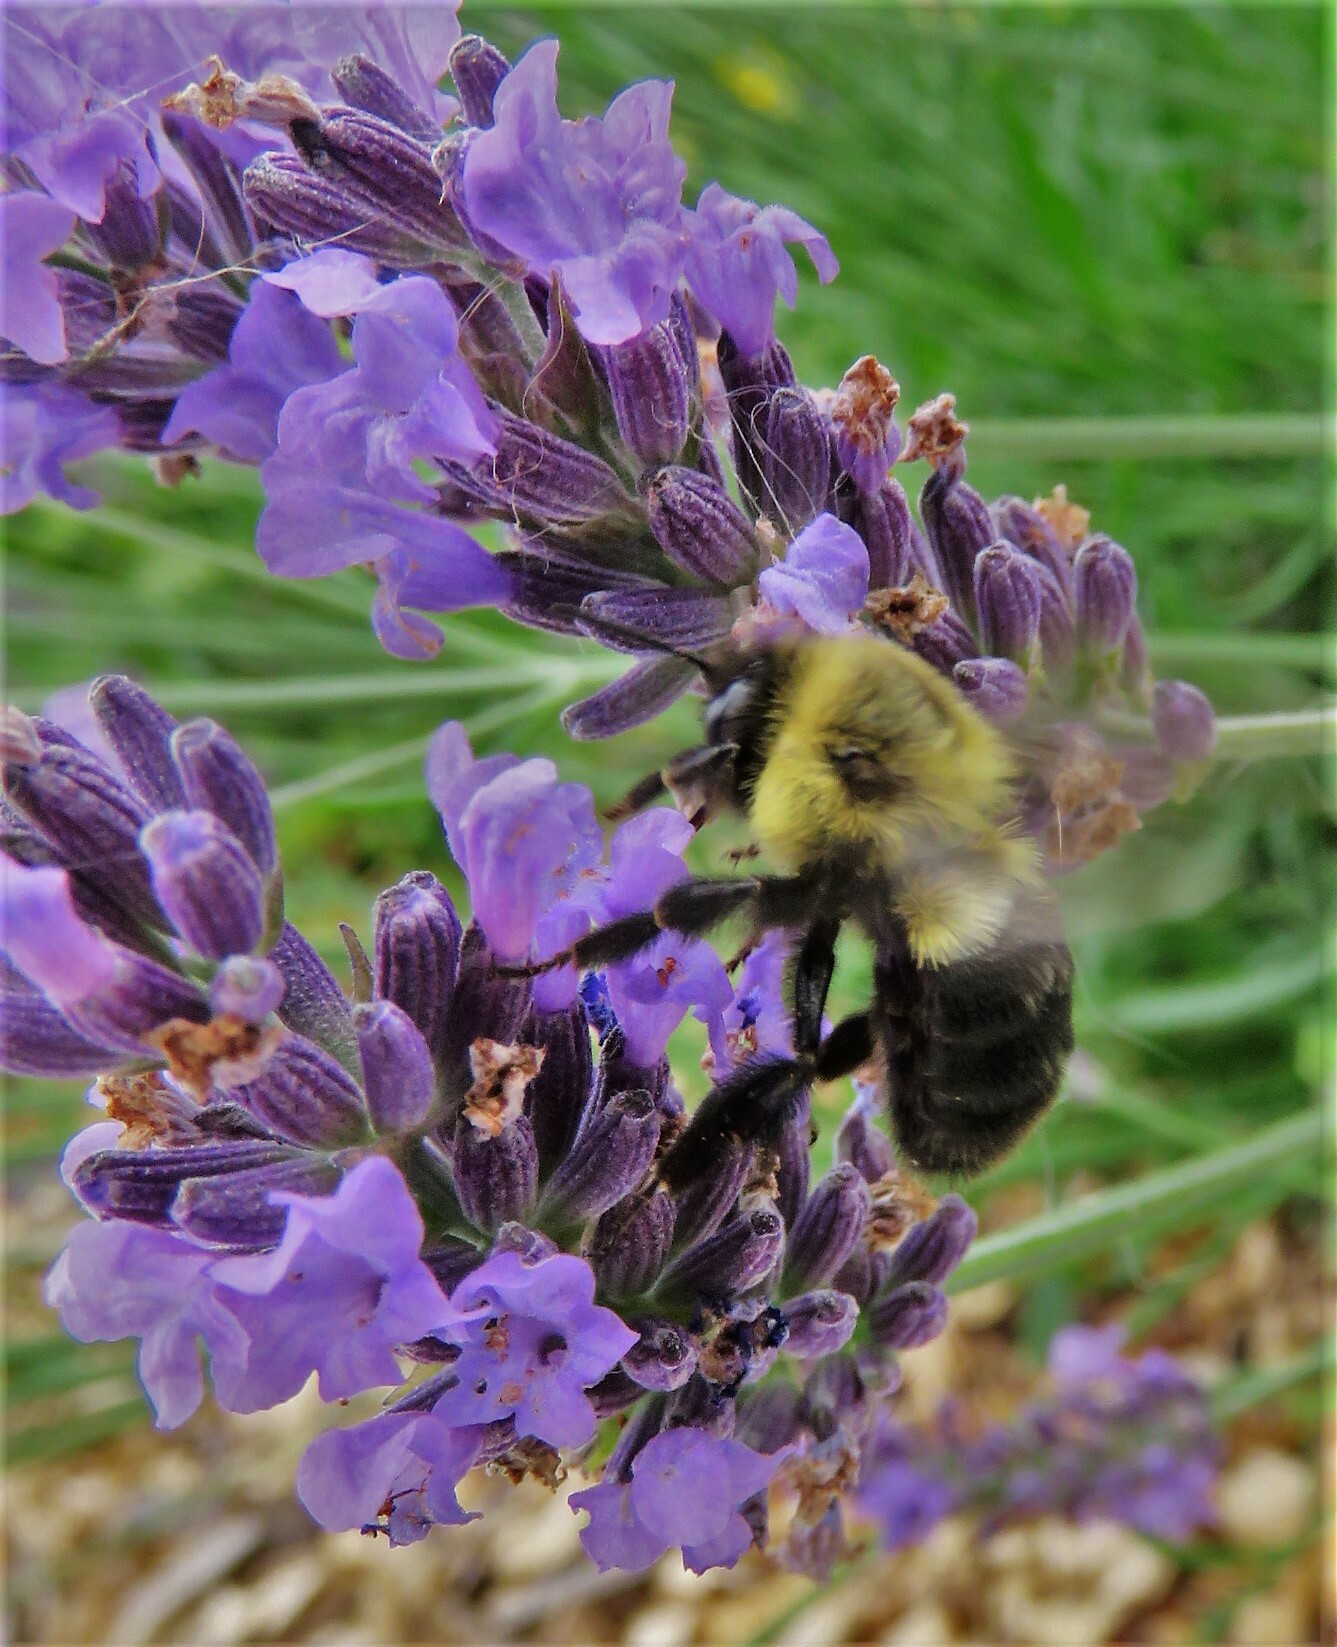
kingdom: Animalia
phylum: Arthropoda
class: Insecta
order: Hymenoptera
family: Apidae
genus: Bombus
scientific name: Bombus impatiens
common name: Common eastern bumble bee
